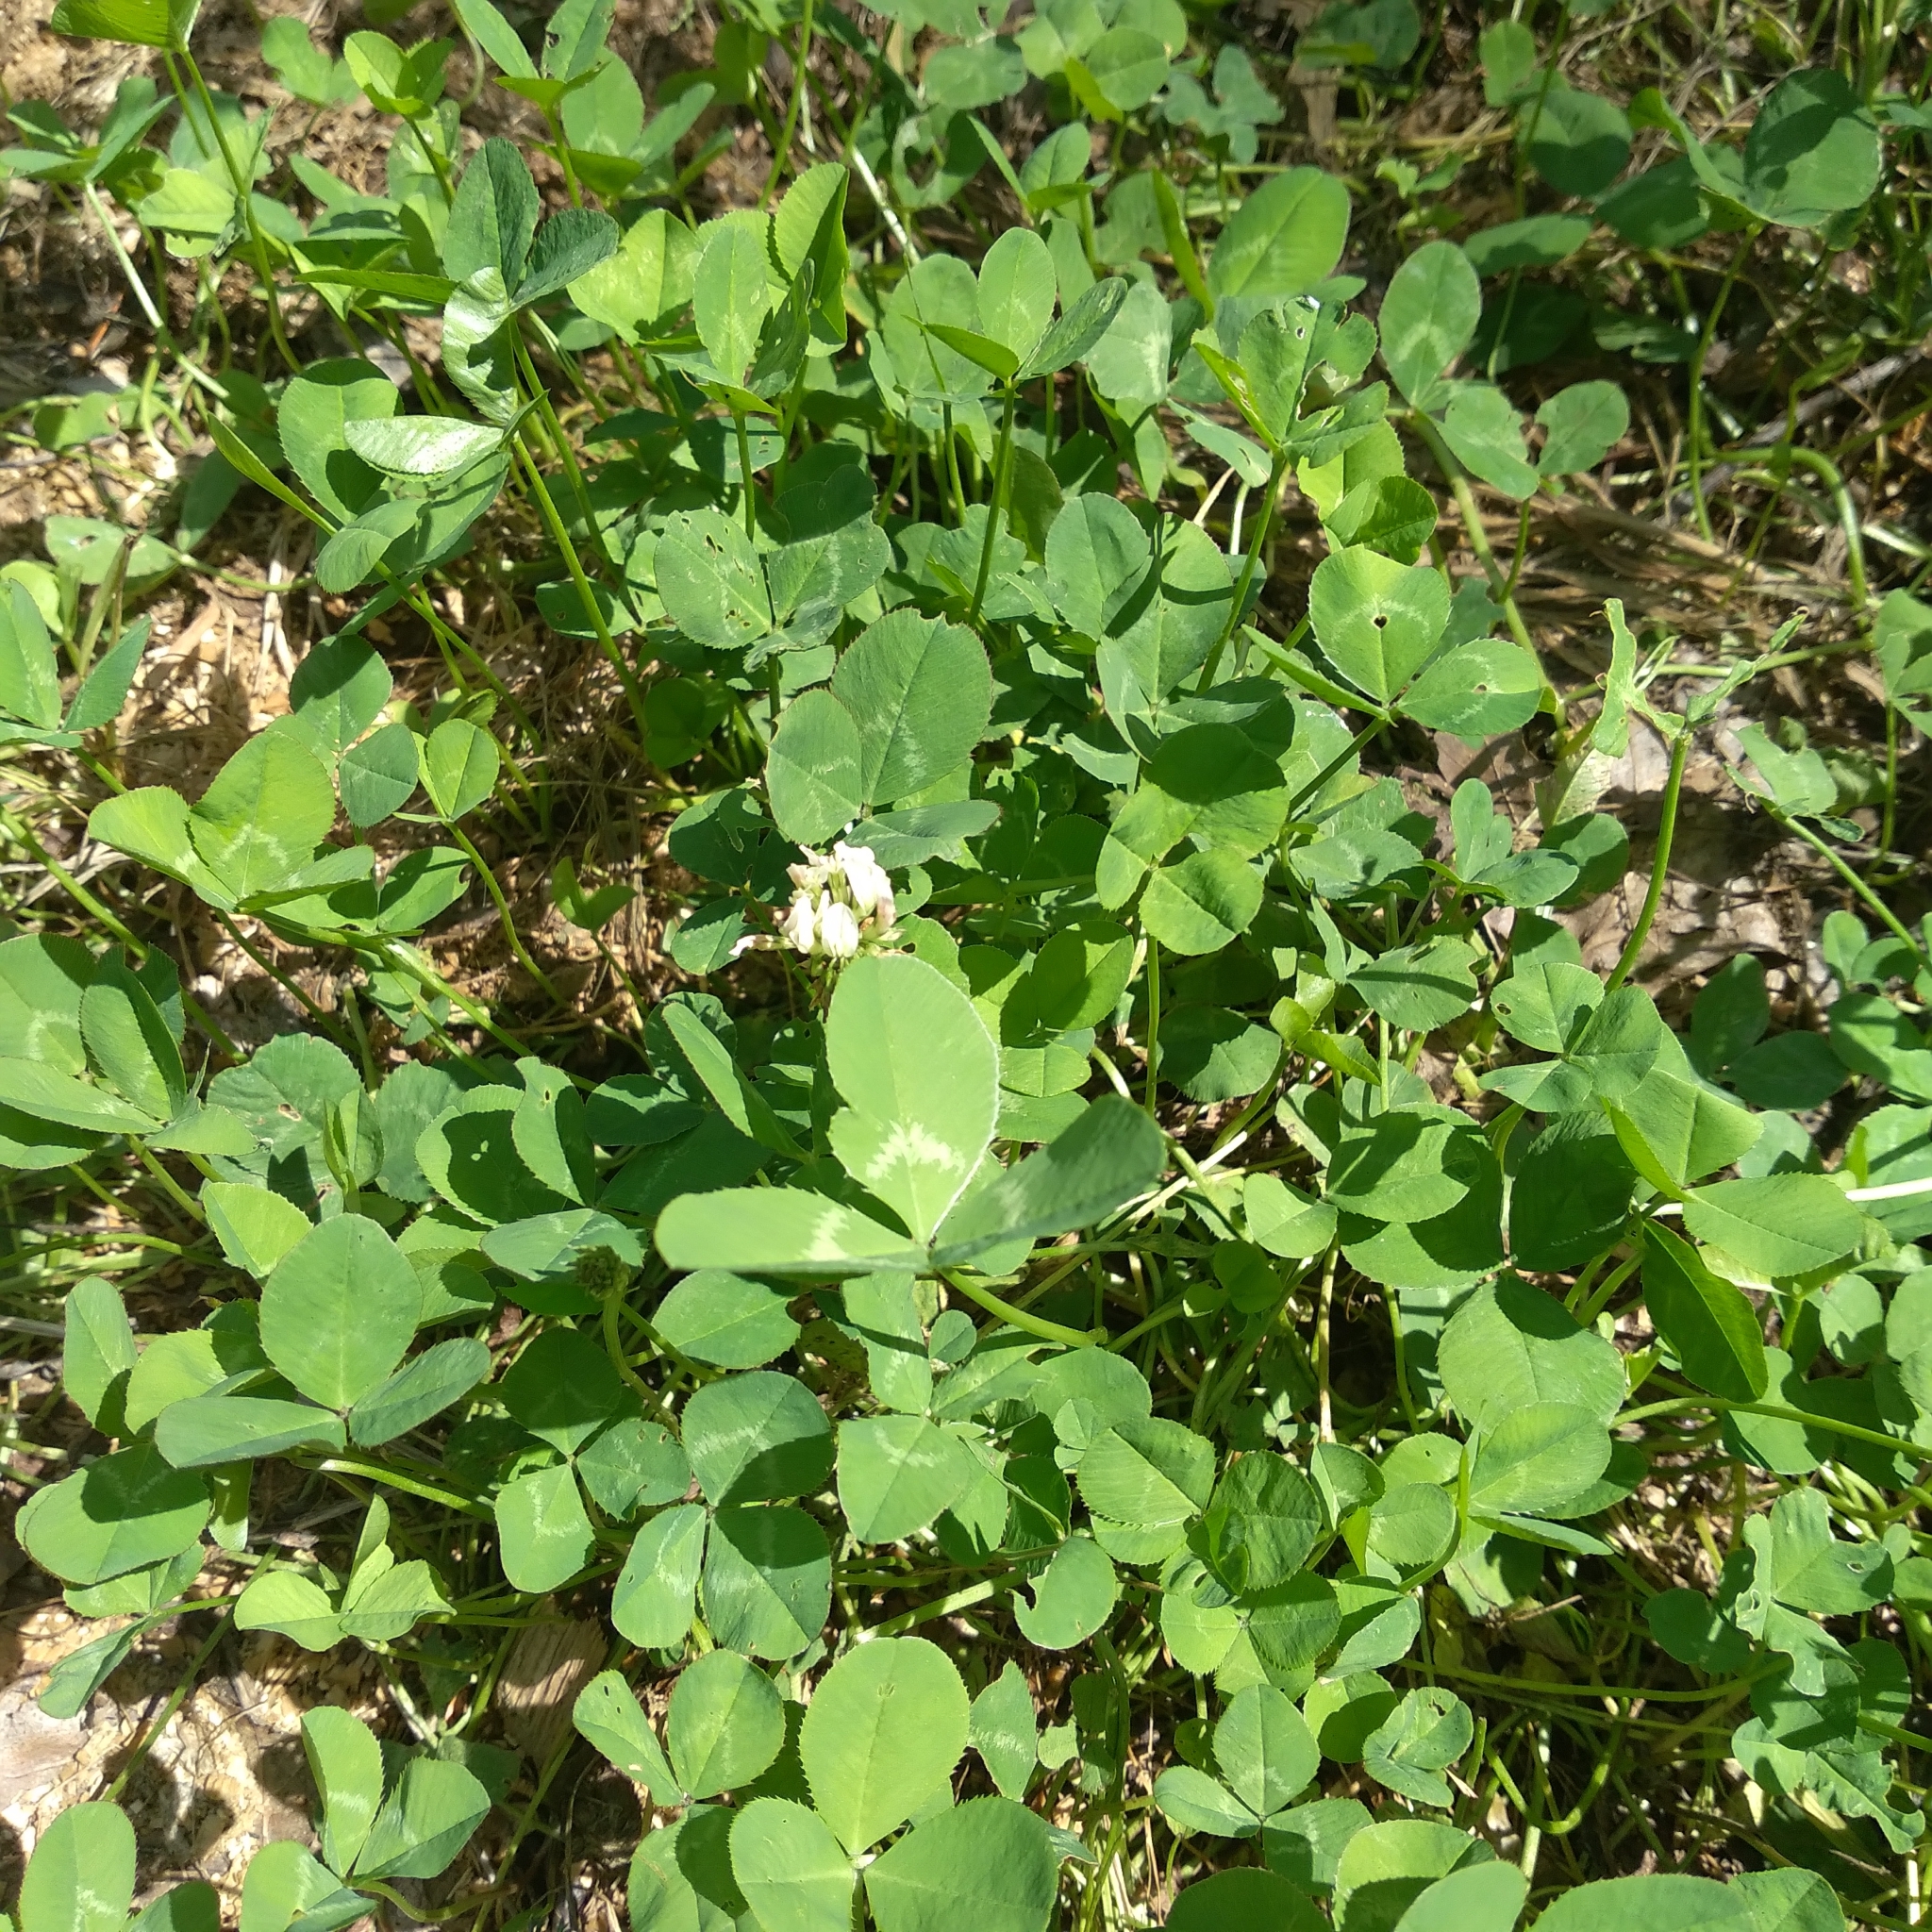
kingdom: Plantae
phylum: Tracheophyta
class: Magnoliopsida
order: Fabales
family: Fabaceae
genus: Trifolium
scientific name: Trifolium repens
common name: White clover
